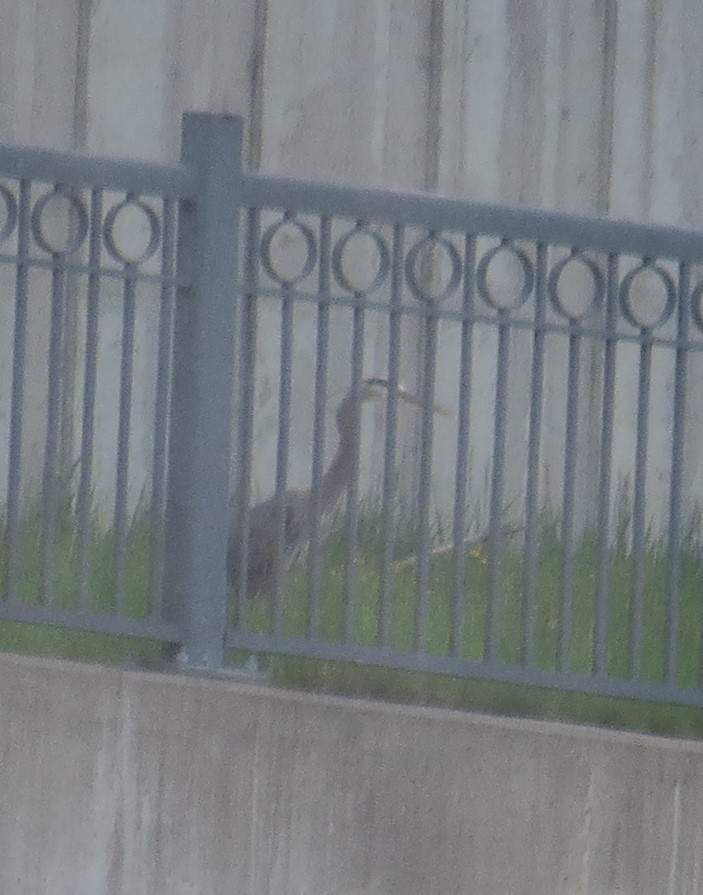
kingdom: Animalia
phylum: Chordata
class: Aves
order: Pelecaniformes
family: Ardeidae
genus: Ardea
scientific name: Ardea herodias
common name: Great blue heron
